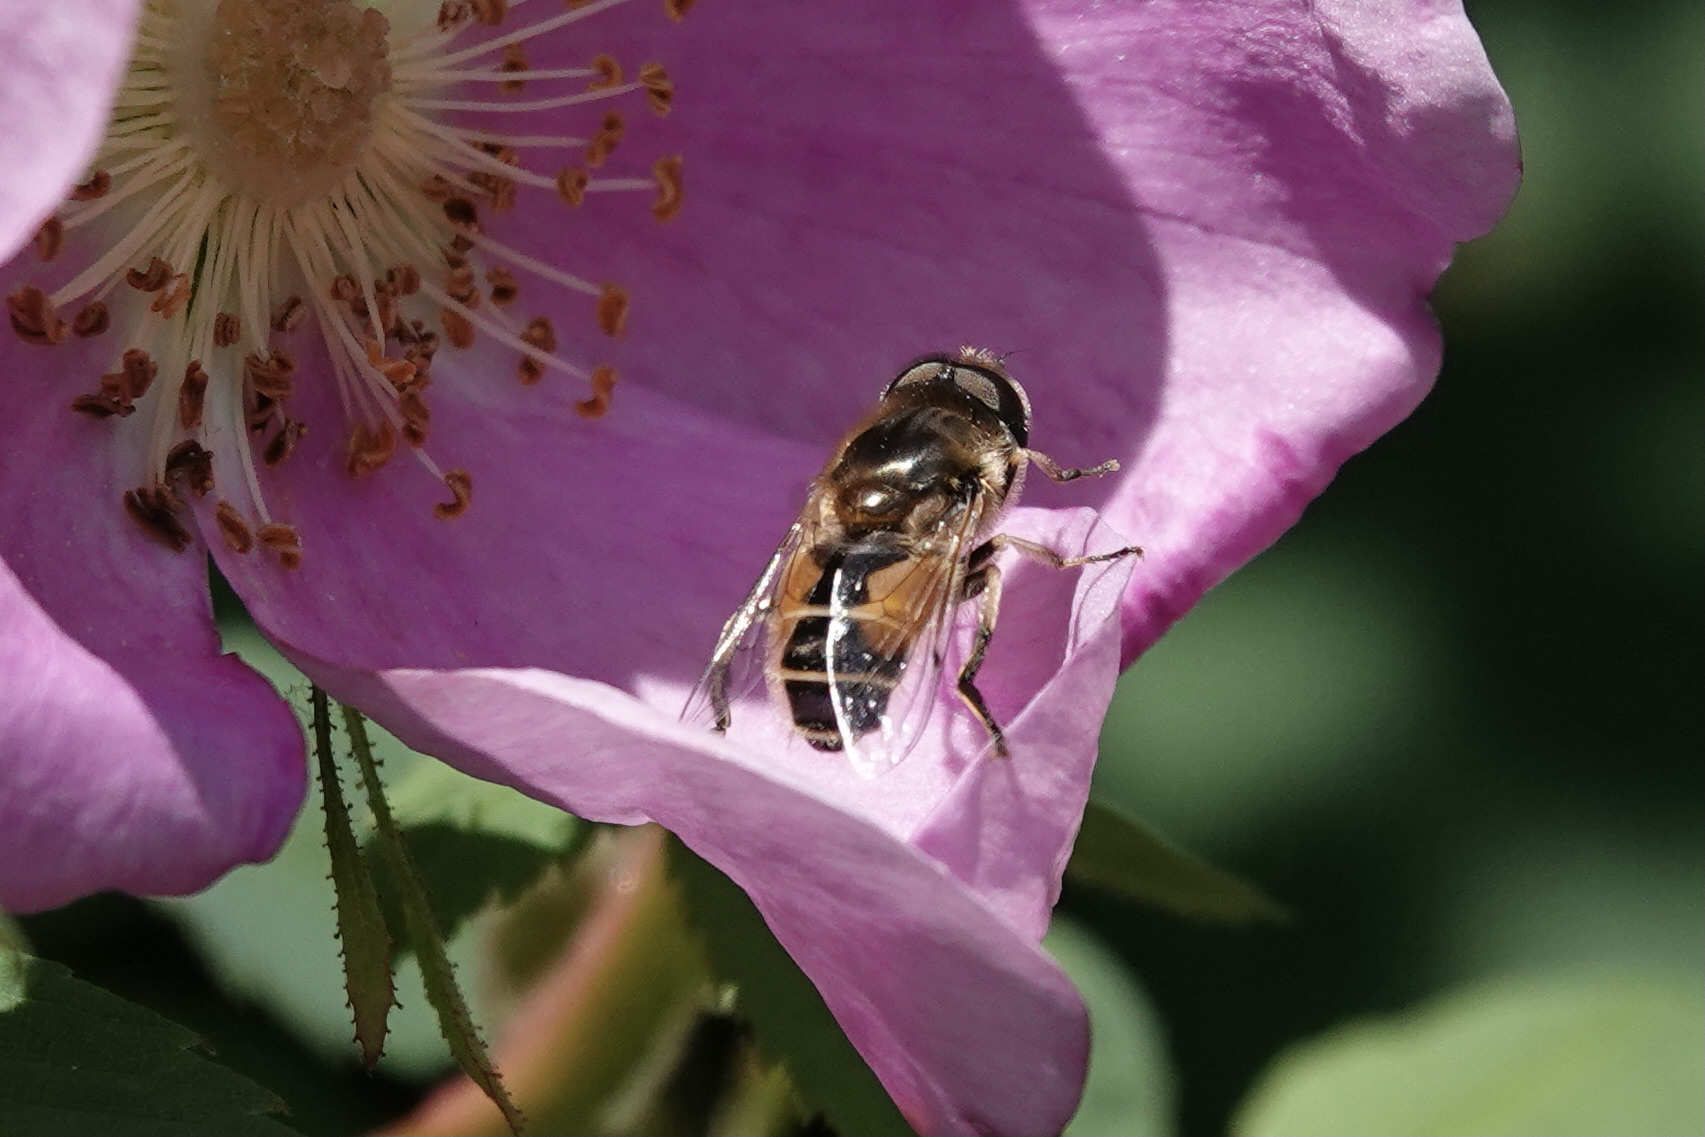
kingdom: Animalia
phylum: Arthropoda
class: Insecta
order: Diptera
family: Syrphidae
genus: Eristalis
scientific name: Eristalis arbustorum
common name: Hover fly
